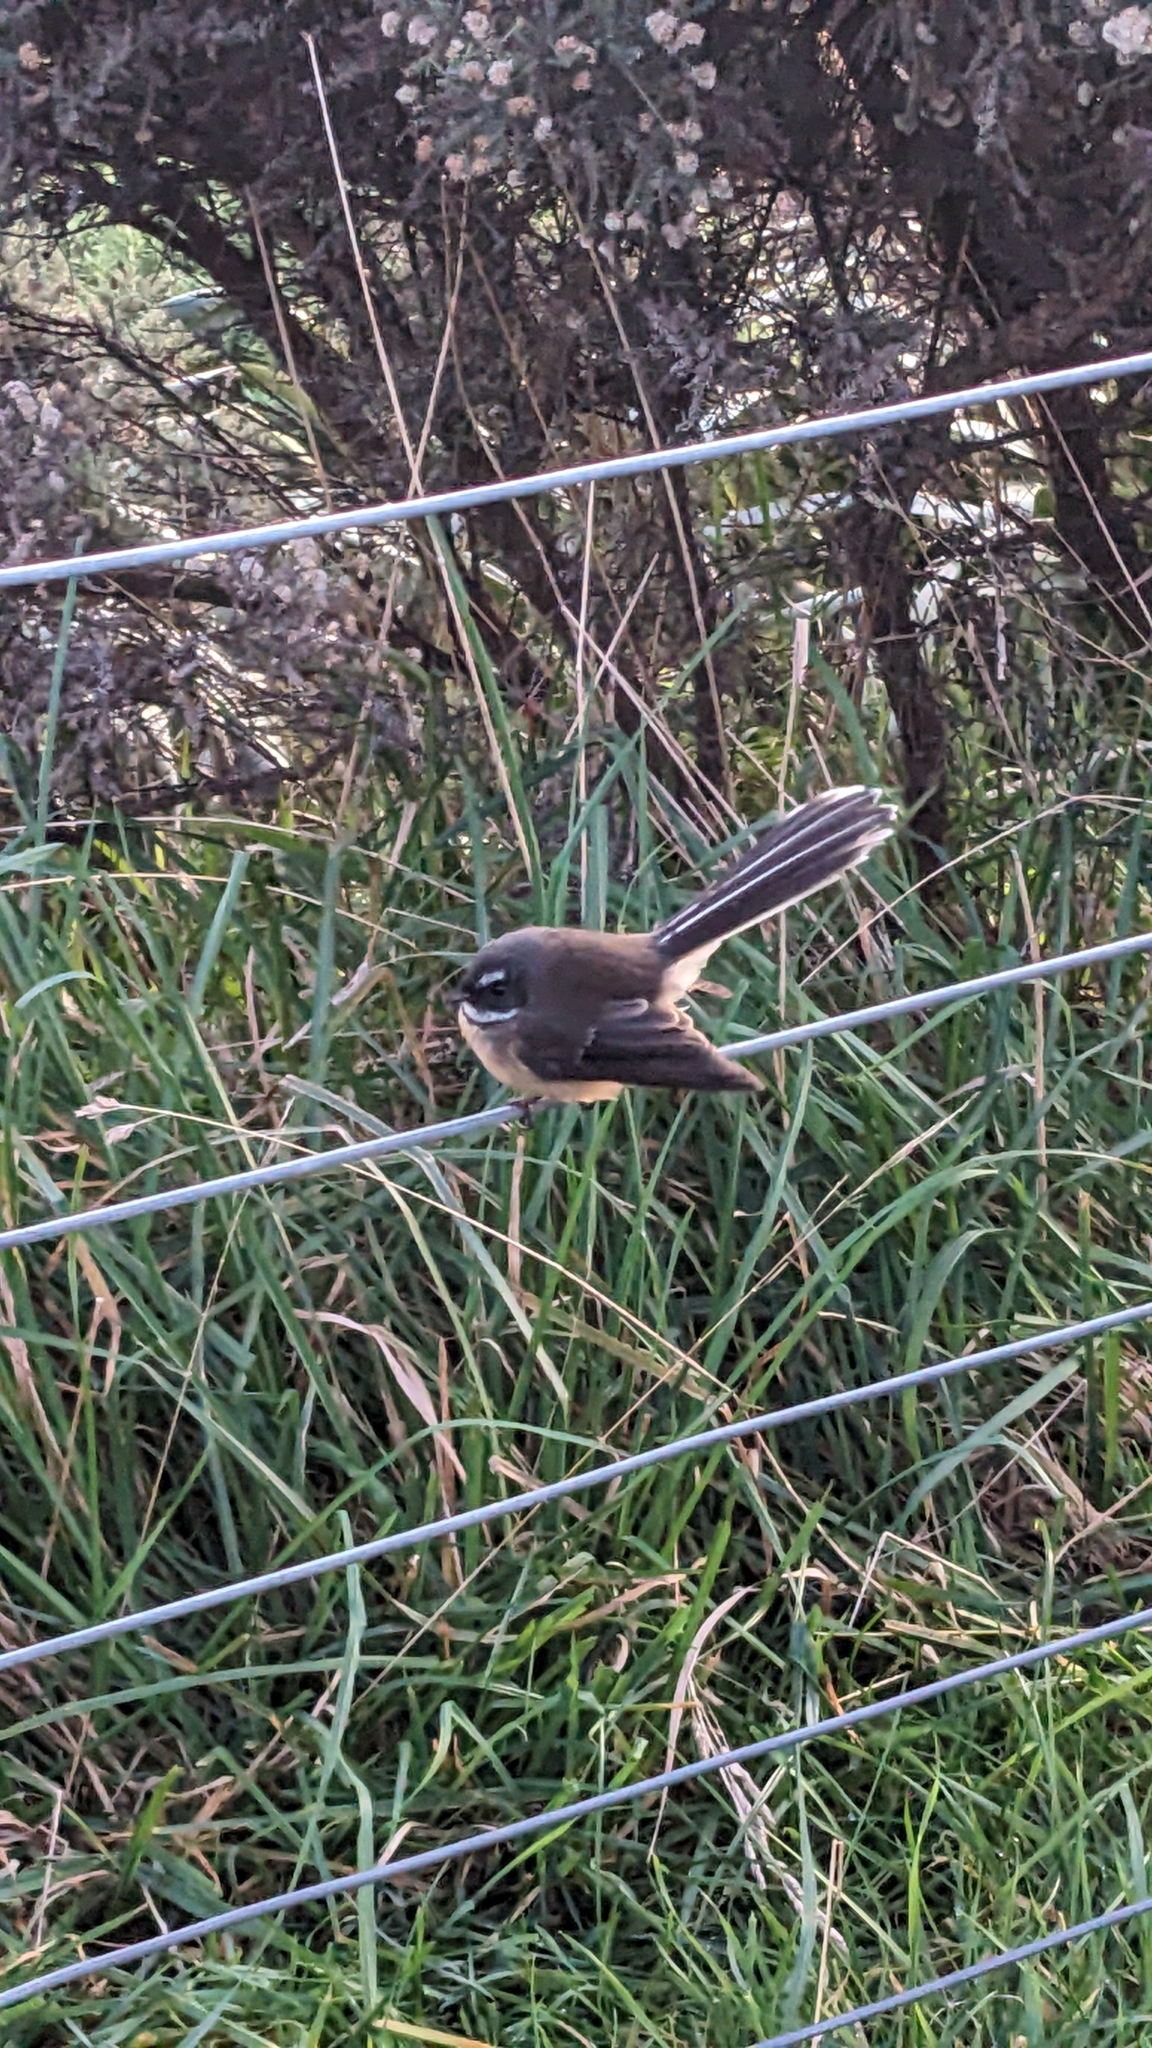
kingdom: Animalia
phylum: Chordata
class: Aves
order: Passeriformes
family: Rhipiduridae
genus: Rhipidura
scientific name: Rhipidura fuliginosa
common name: New zealand fantail
